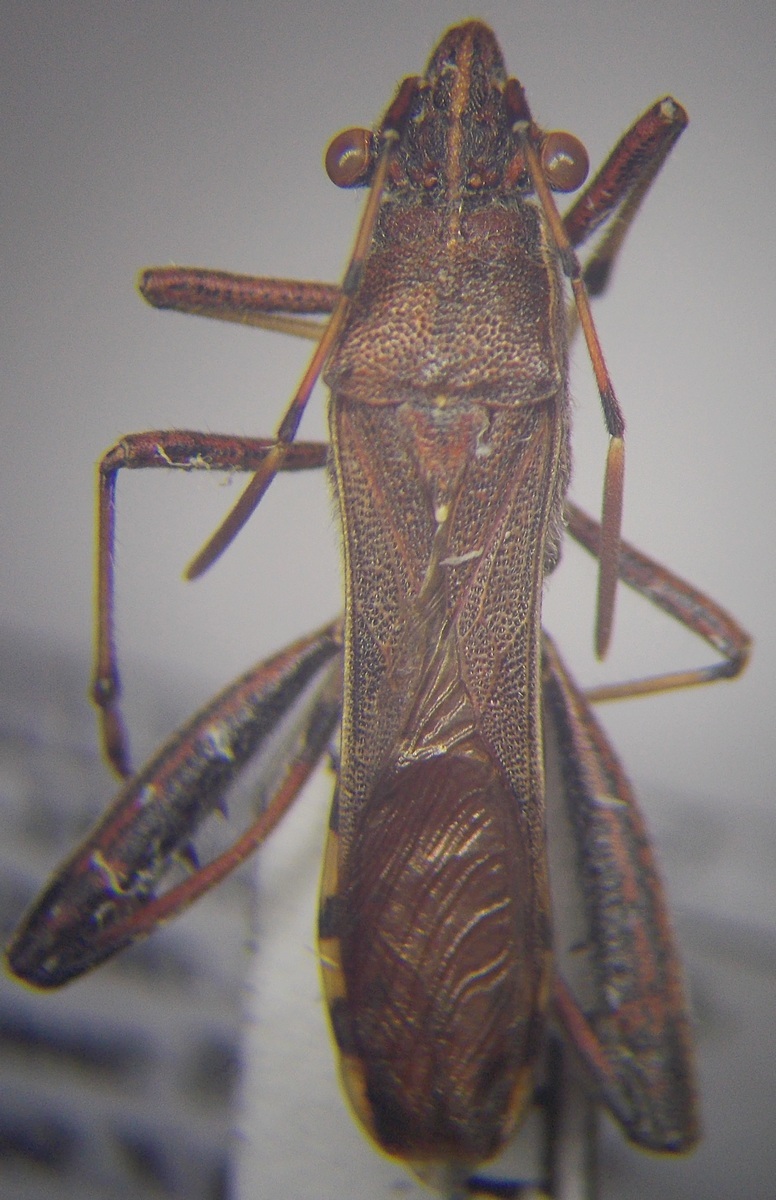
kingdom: Animalia
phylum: Arthropoda
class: Insecta
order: Hemiptera
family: Alydidae
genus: Camptopus
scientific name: Camptopus lateralis
